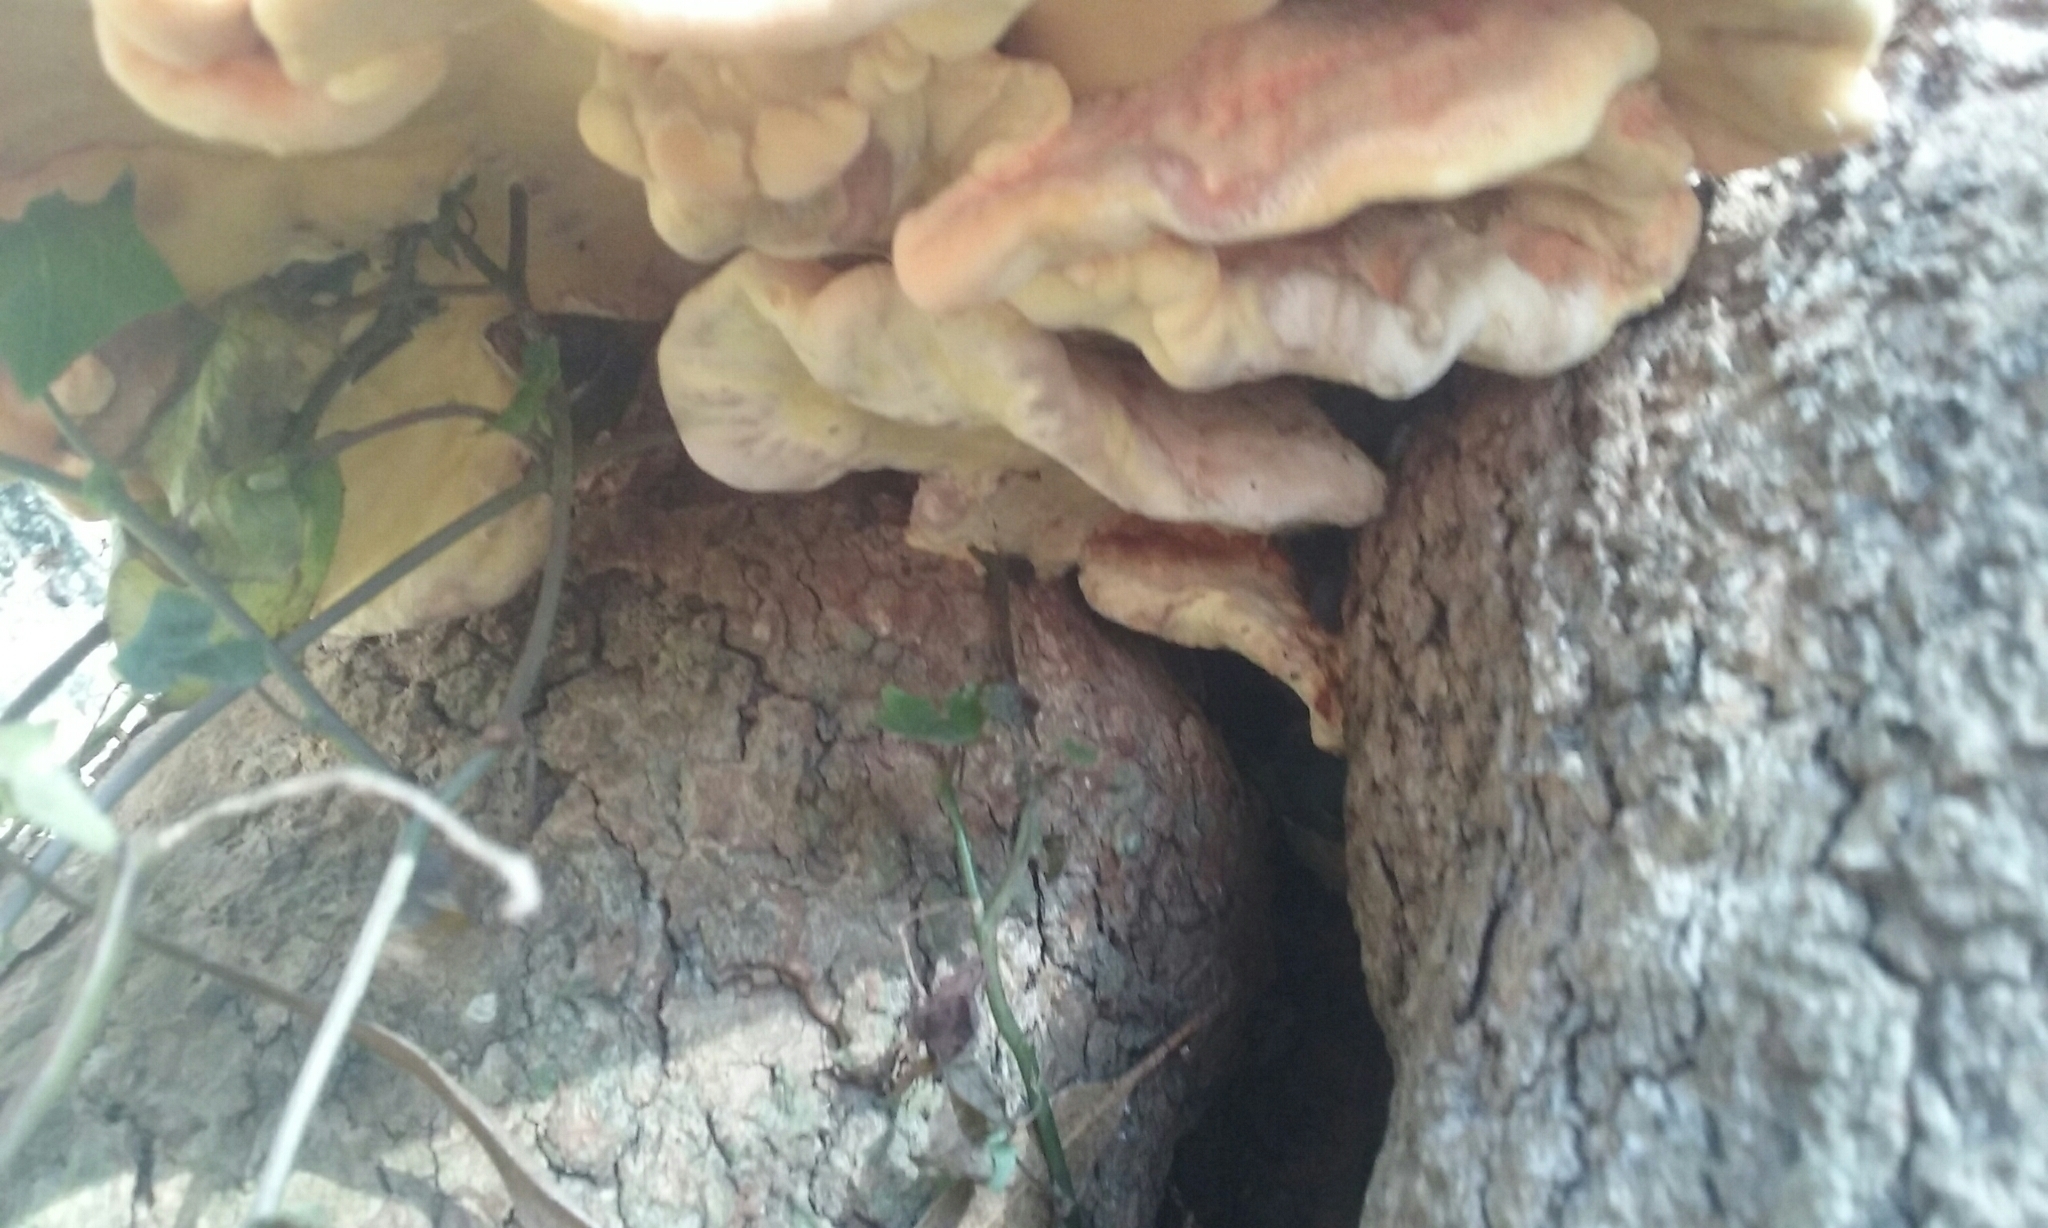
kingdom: Fungi
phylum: Basidiomycota
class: Agaricomycetes
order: Polyporales
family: Laetiporaceae
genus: Laetiporus
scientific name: Laetiporus gilbertsonii
